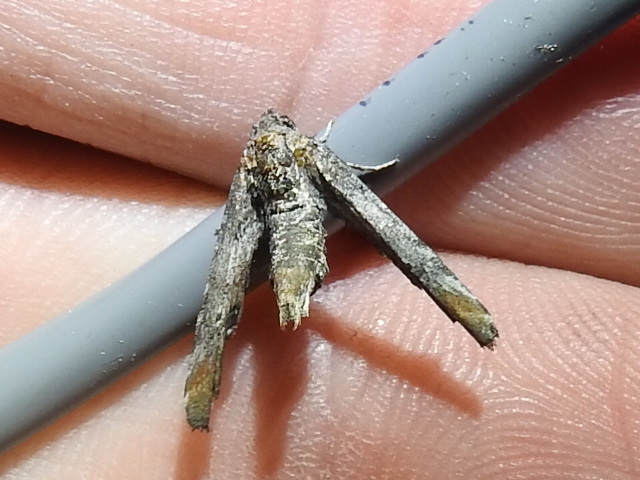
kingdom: Animalia
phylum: Arthropoda
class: Insecta
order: Lepidoptera
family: Euteliidae
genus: Marathyssa
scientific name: Marathyssa inficita
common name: Dark marathyssa moth
